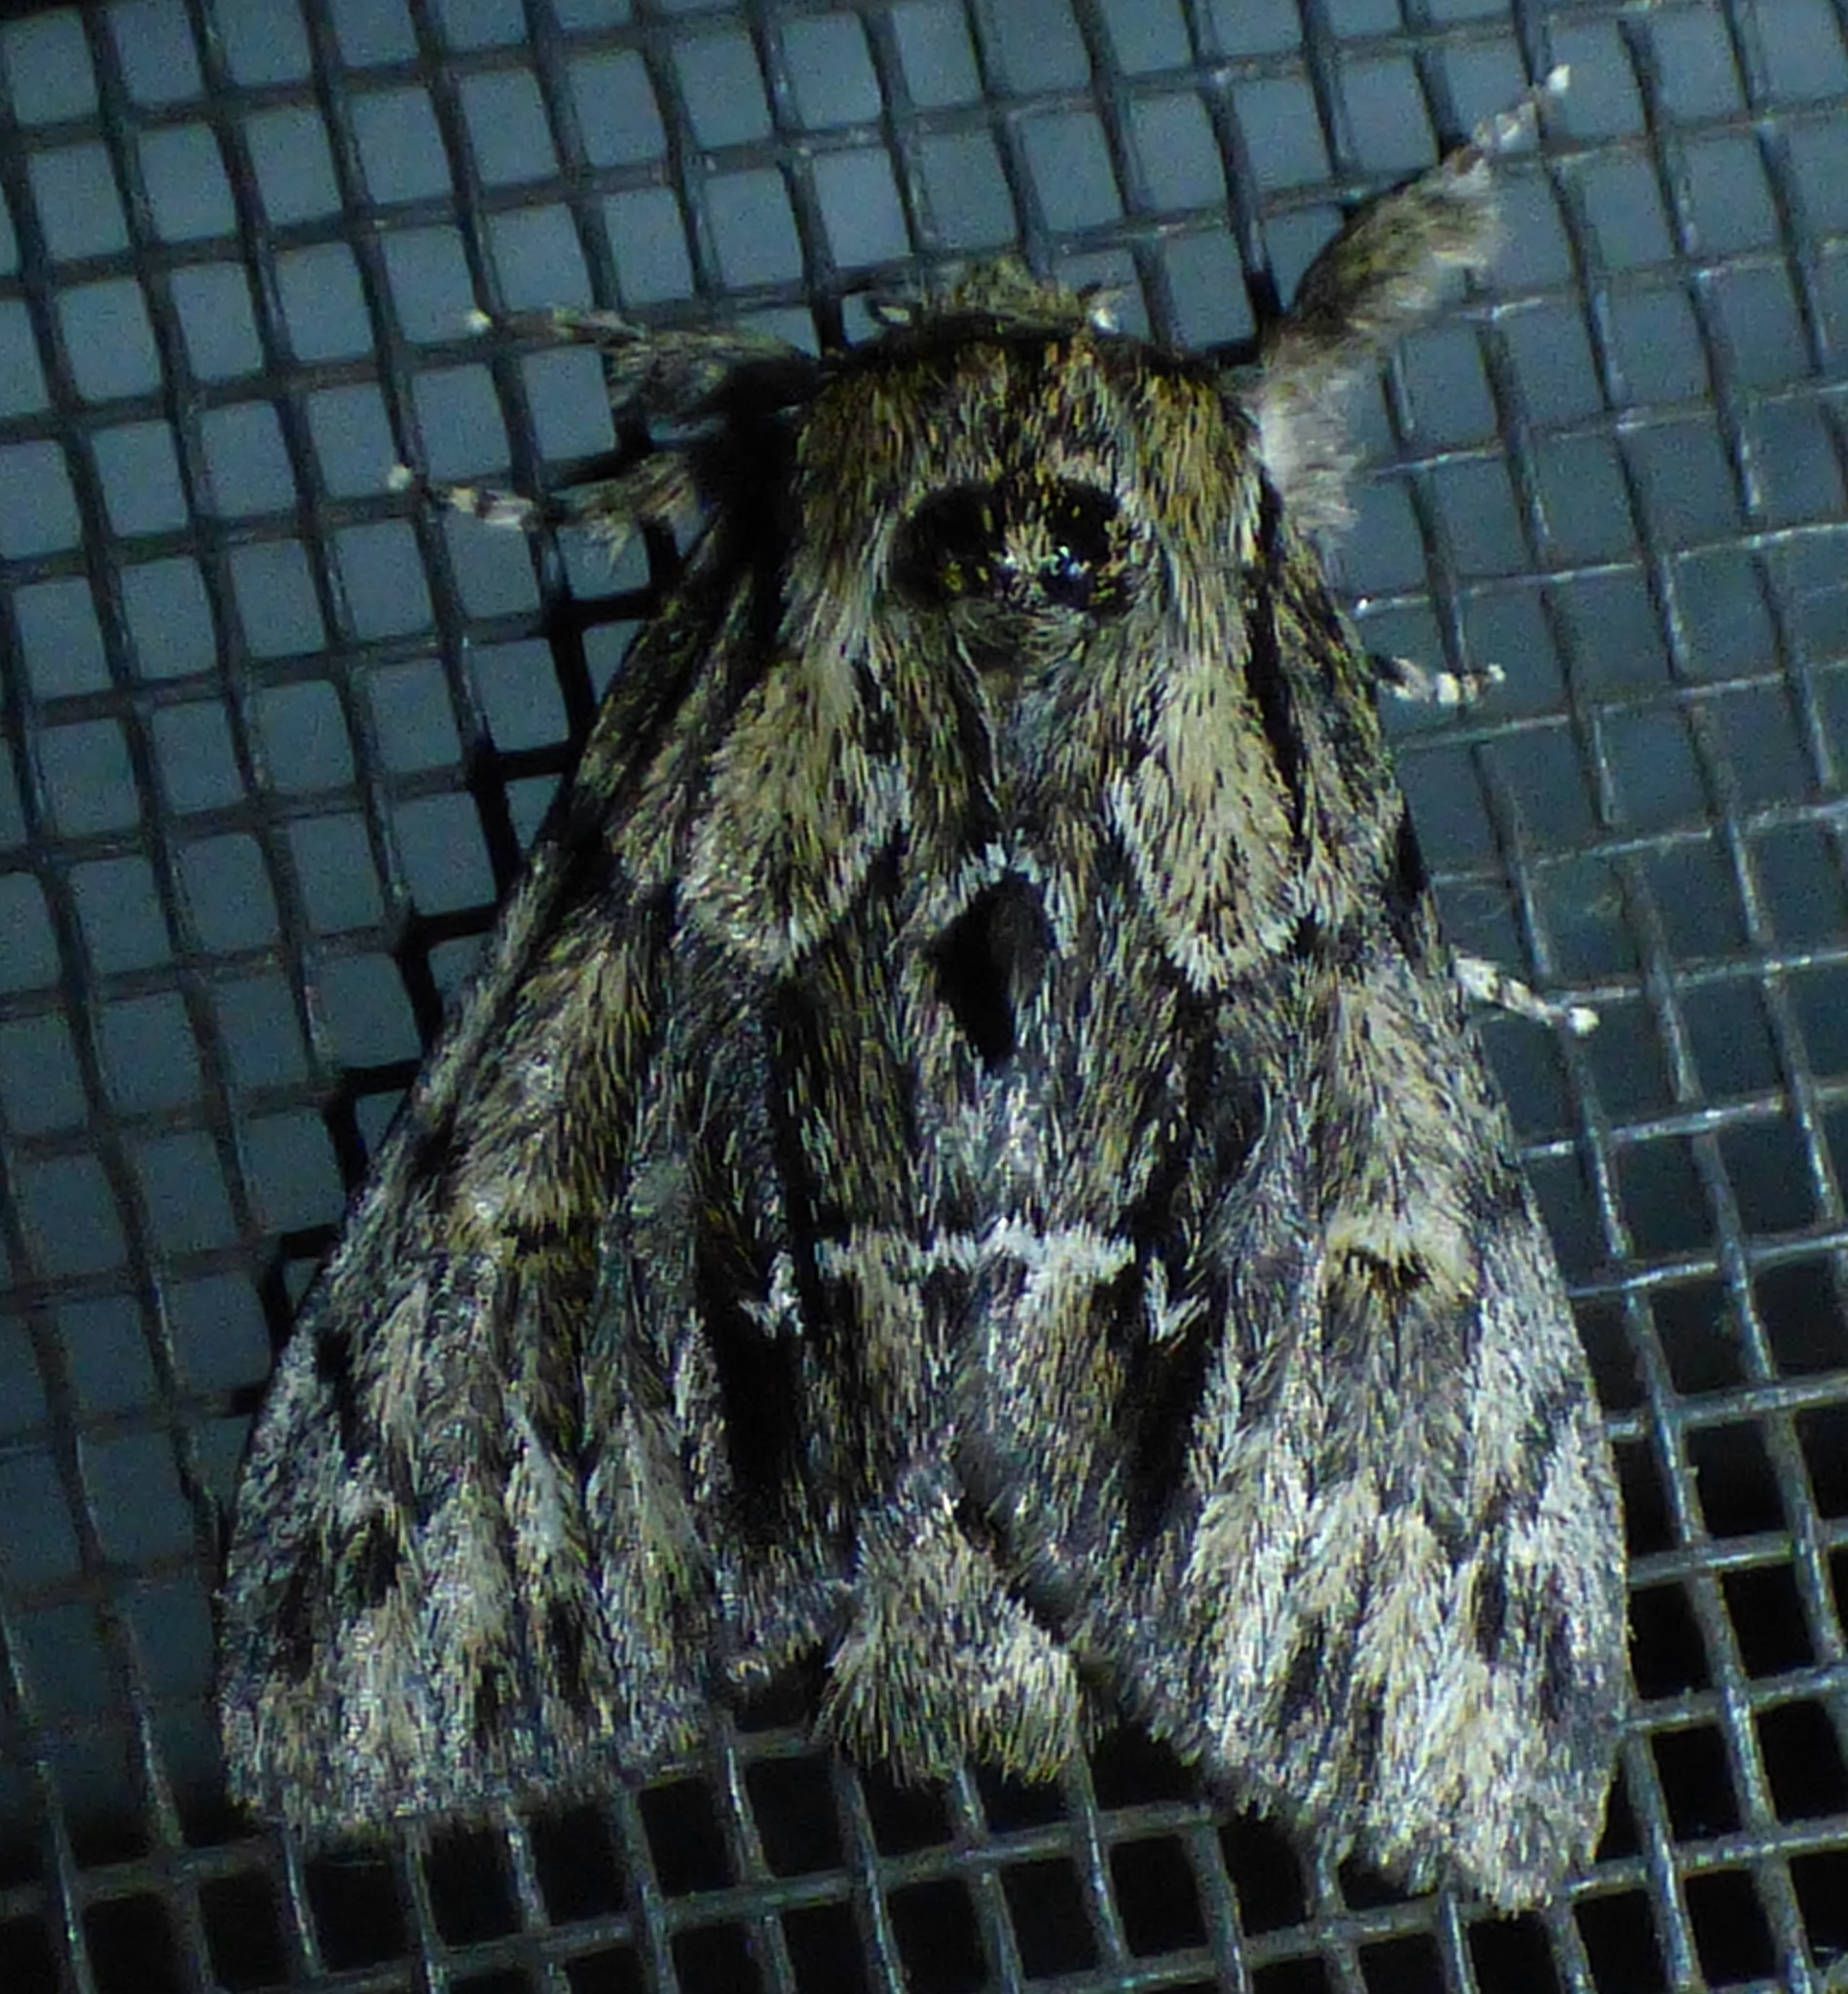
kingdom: Animalia
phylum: Arthropoda
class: Insecta
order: Lepidoptera
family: Notodontidae
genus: Paraeschra
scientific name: Paraeschra georgica
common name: Georgian prominent
